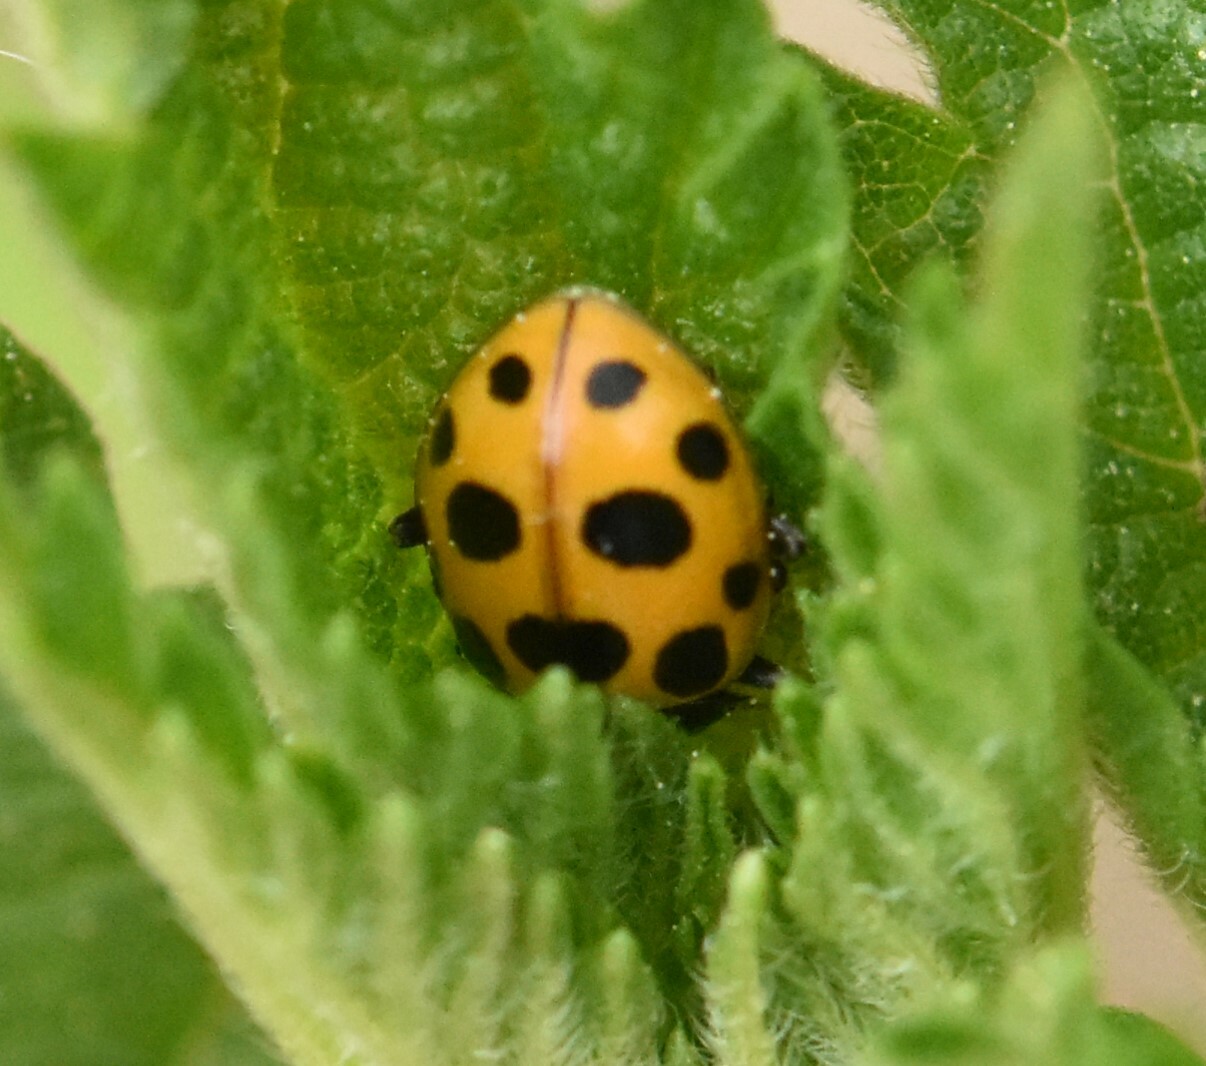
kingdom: Animalia
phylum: Arthropoda
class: Insecta
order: Coleoptera
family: Coccinellidae
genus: Ceratomegilla
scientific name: Ceratomegilla notata
